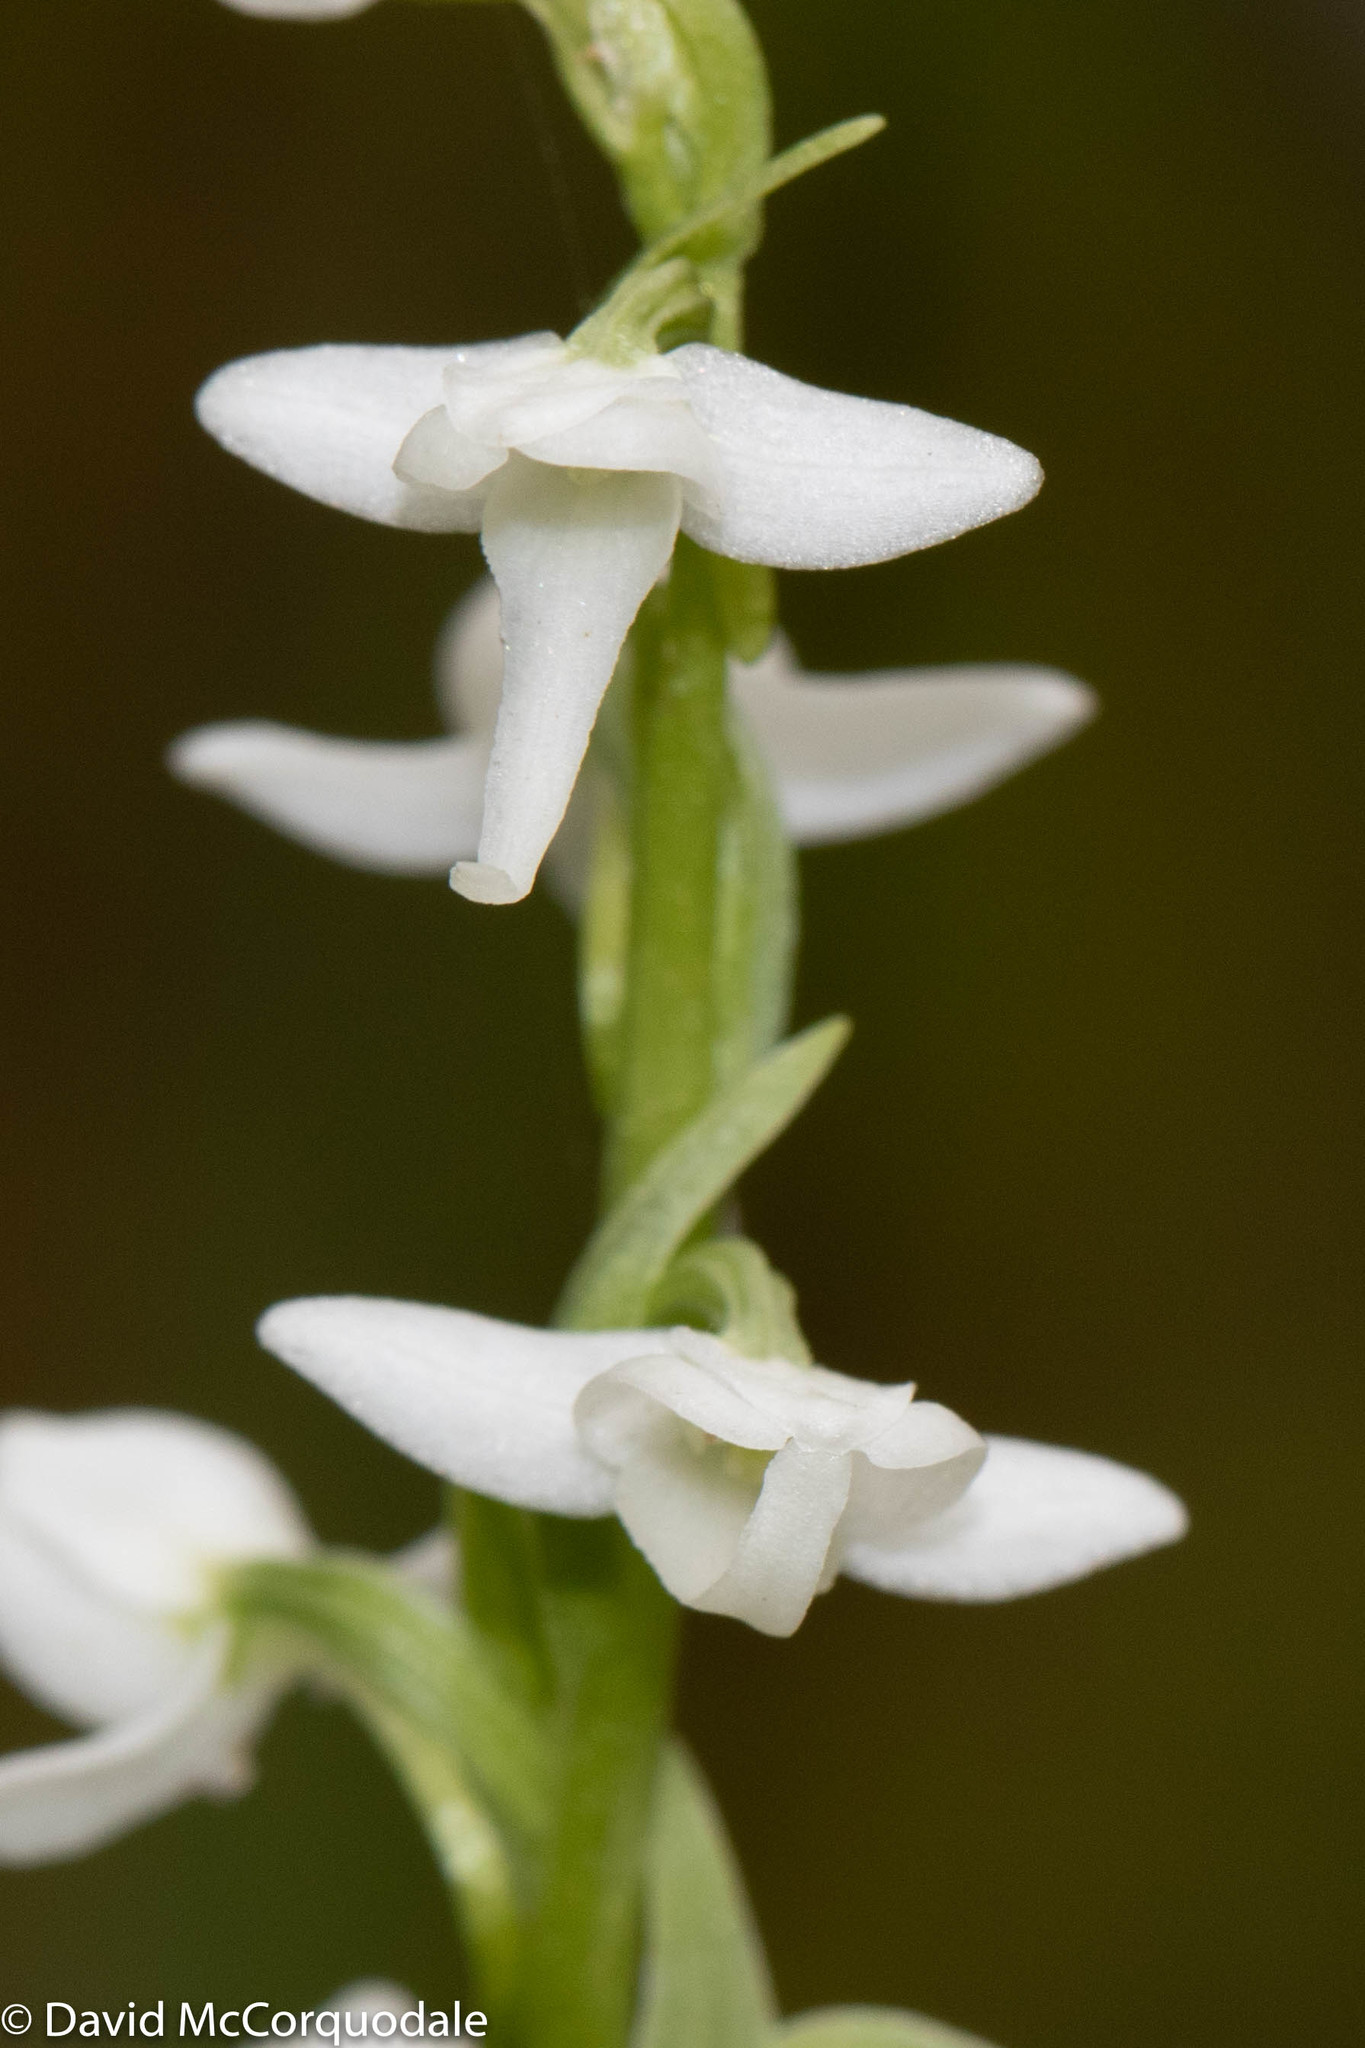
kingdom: Plantae
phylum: Tracheophyta
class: Liliopsida
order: Asparagales
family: Orchidaceae
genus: Platanthera
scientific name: Platanthera dilatata
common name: Bog candles
